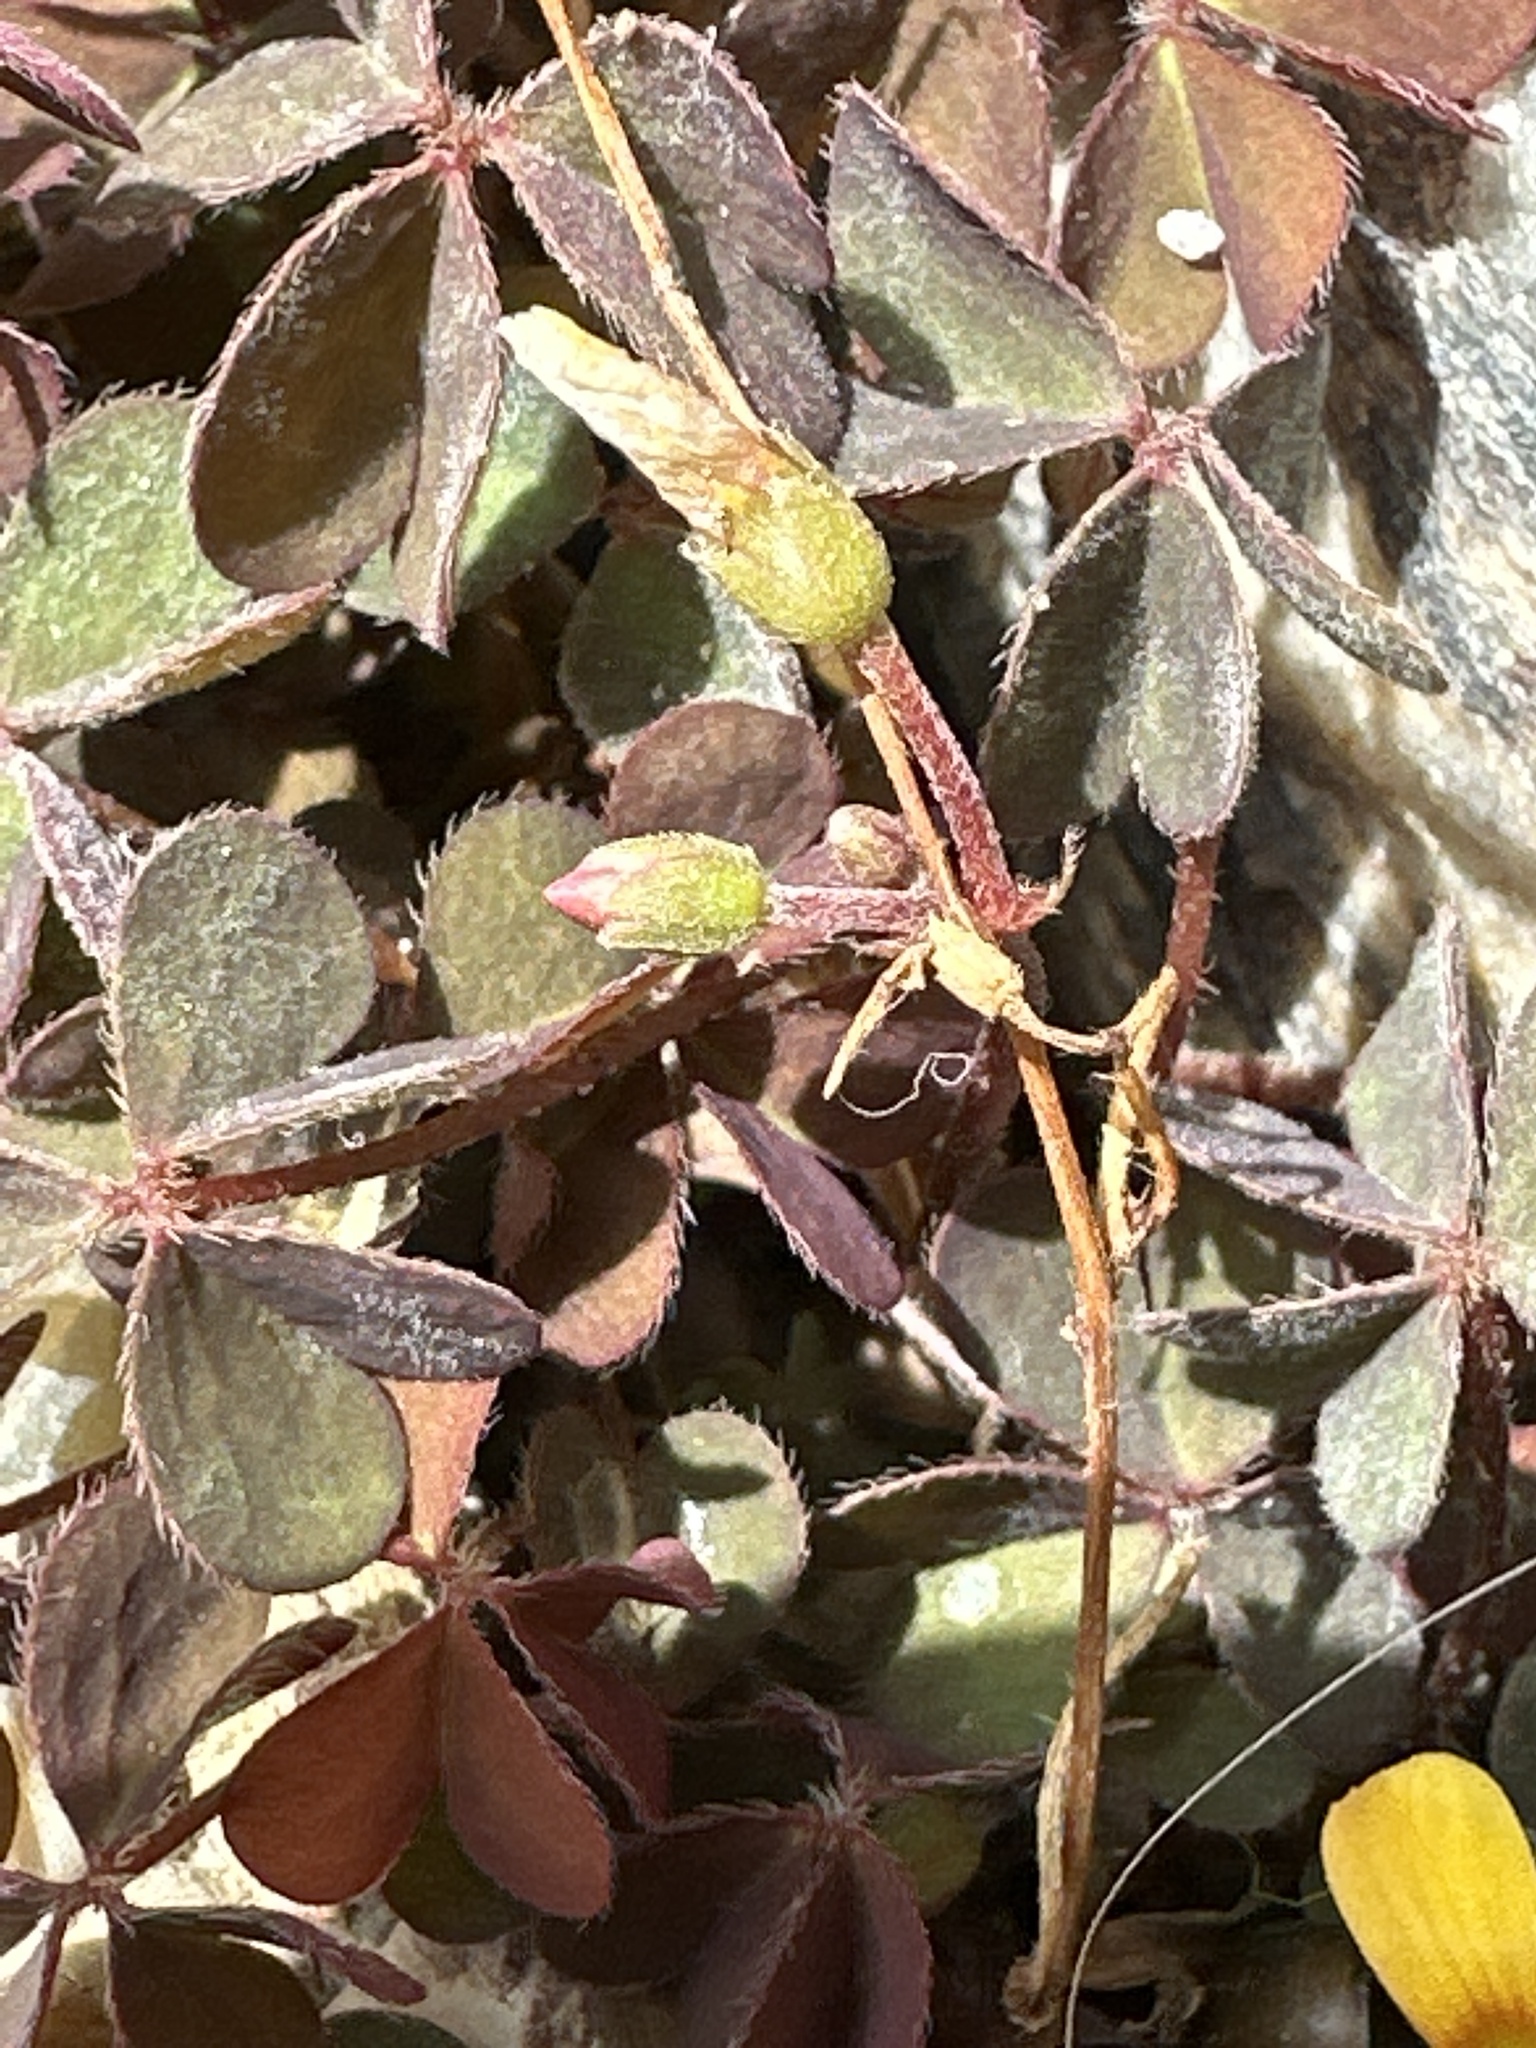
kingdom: Plantae
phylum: Tracheophyta
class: Magnoliopsida
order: Oxalidales
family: Oxalidaceae
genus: Oxalis
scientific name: Oxalis corniculata
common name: Procumbent yellow-sorrel
